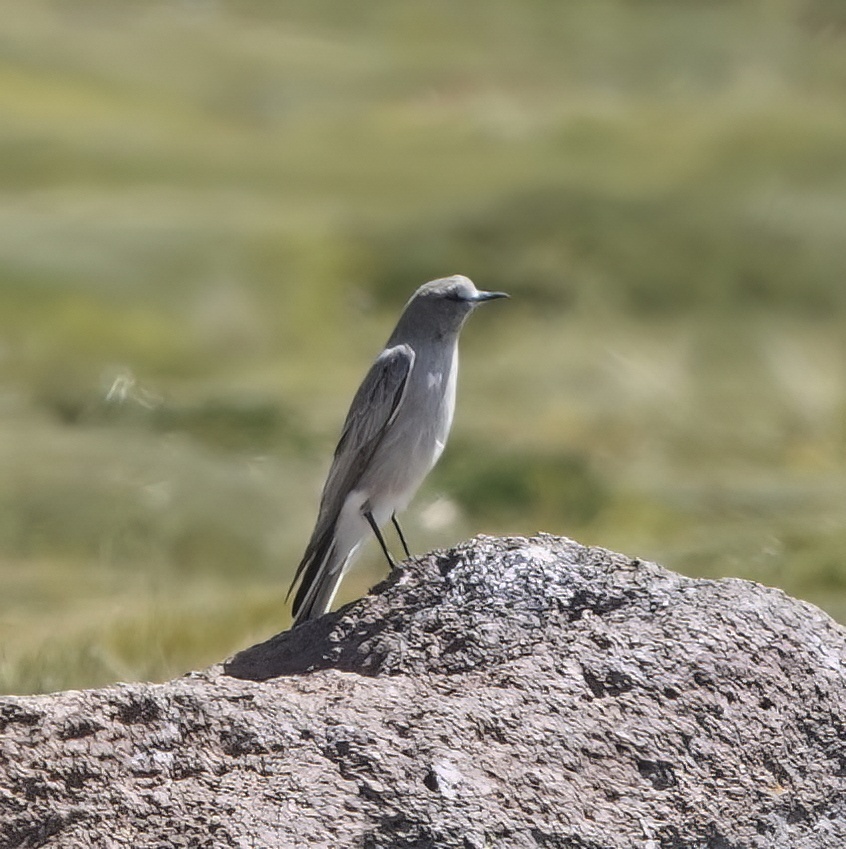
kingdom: Animalia
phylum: Chordata
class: Aves
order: Passeriformes
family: Tyrannidae
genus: Muscisaxicola
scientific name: Muscisaxicola albifrons
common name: White-fronted ground tyrant
